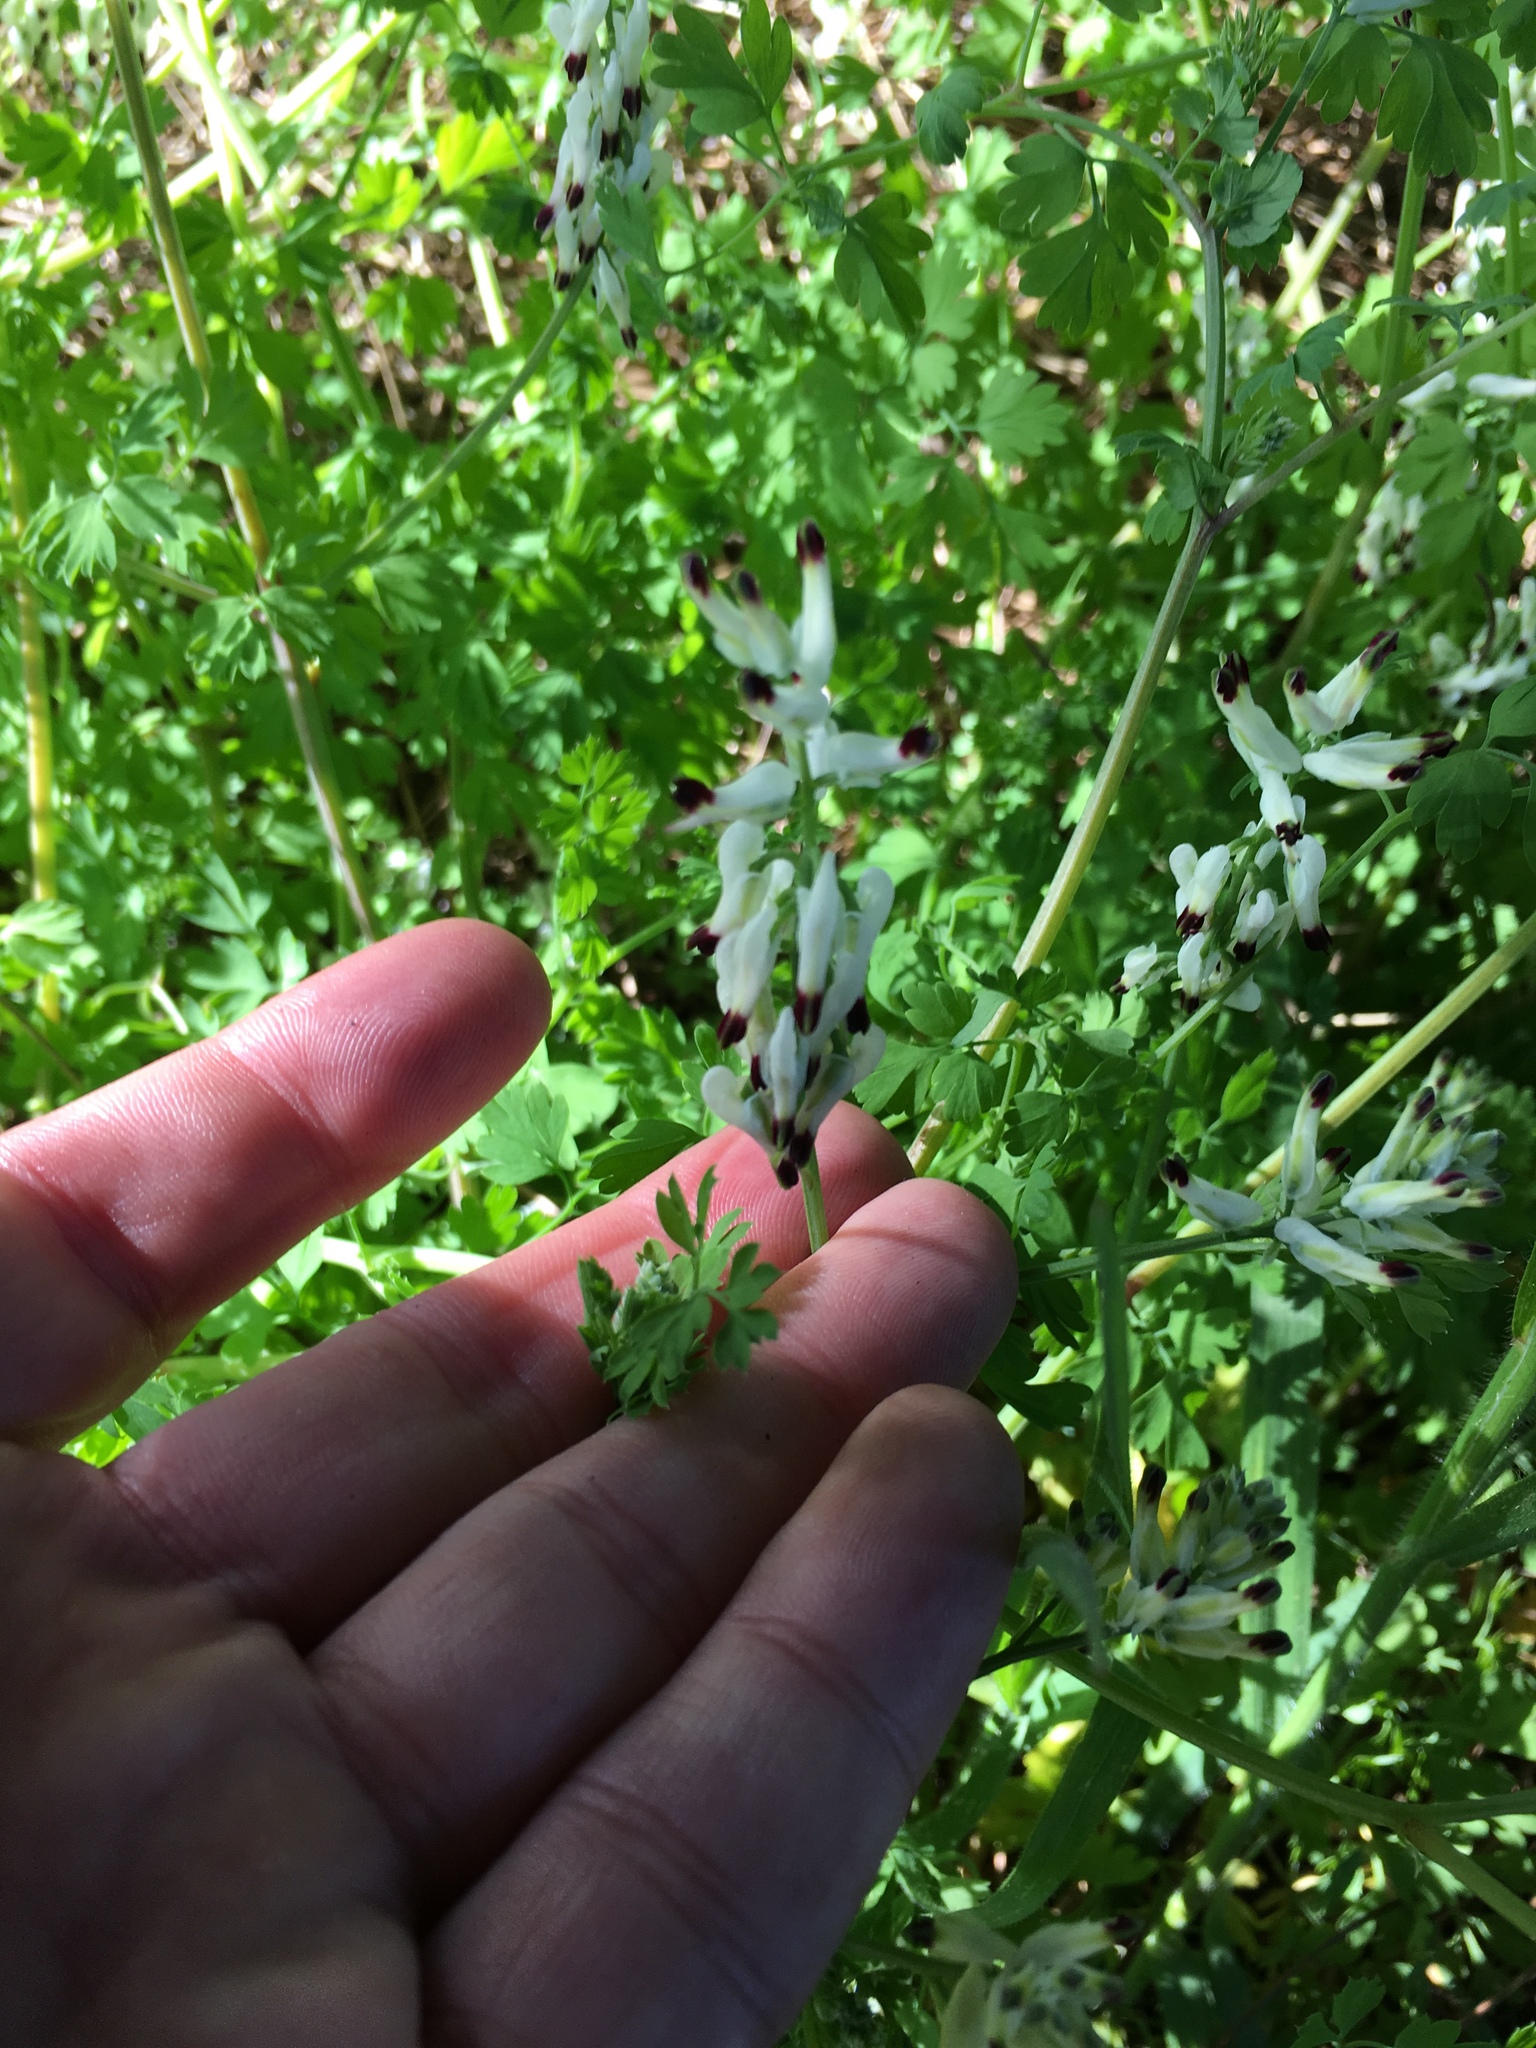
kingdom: Plantae
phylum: Tracheophyta
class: Magnoliopsida
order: Ranunculales
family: Papaveraceae
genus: Fumaria
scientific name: Fumaria capreolata
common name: White ramping-fumitory
